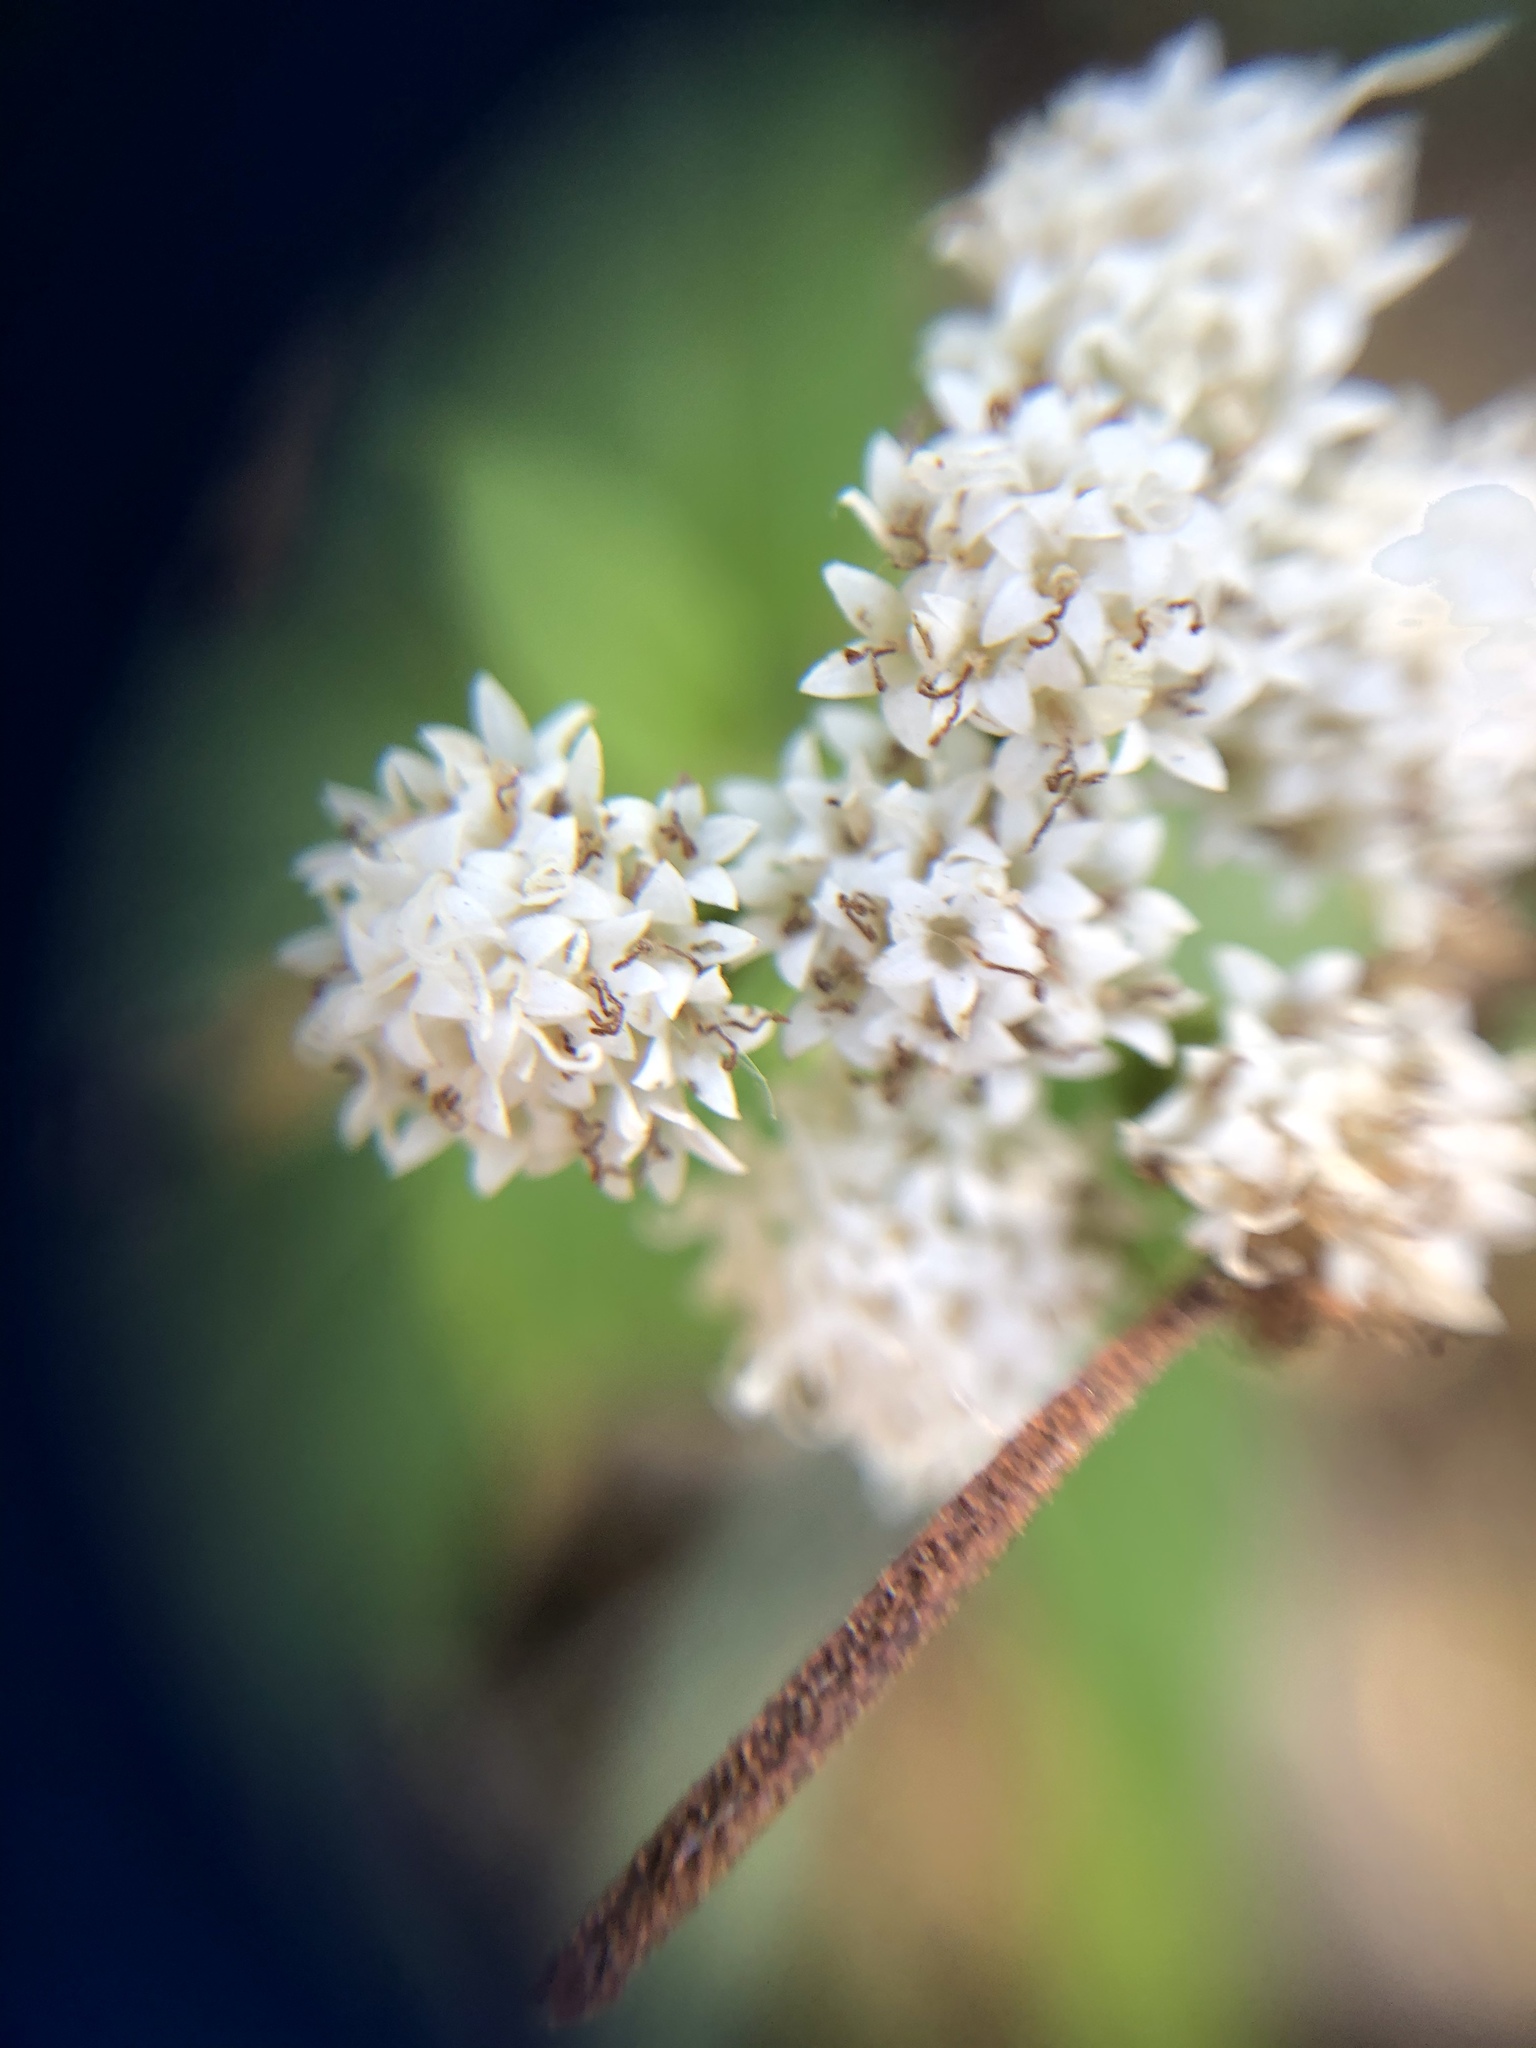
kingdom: Plantae
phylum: Tracheophyta
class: Magnoliopsida
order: Asterales
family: Asteraceae
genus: Ageratina
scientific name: Ageratina altissima
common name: White snakeroot
